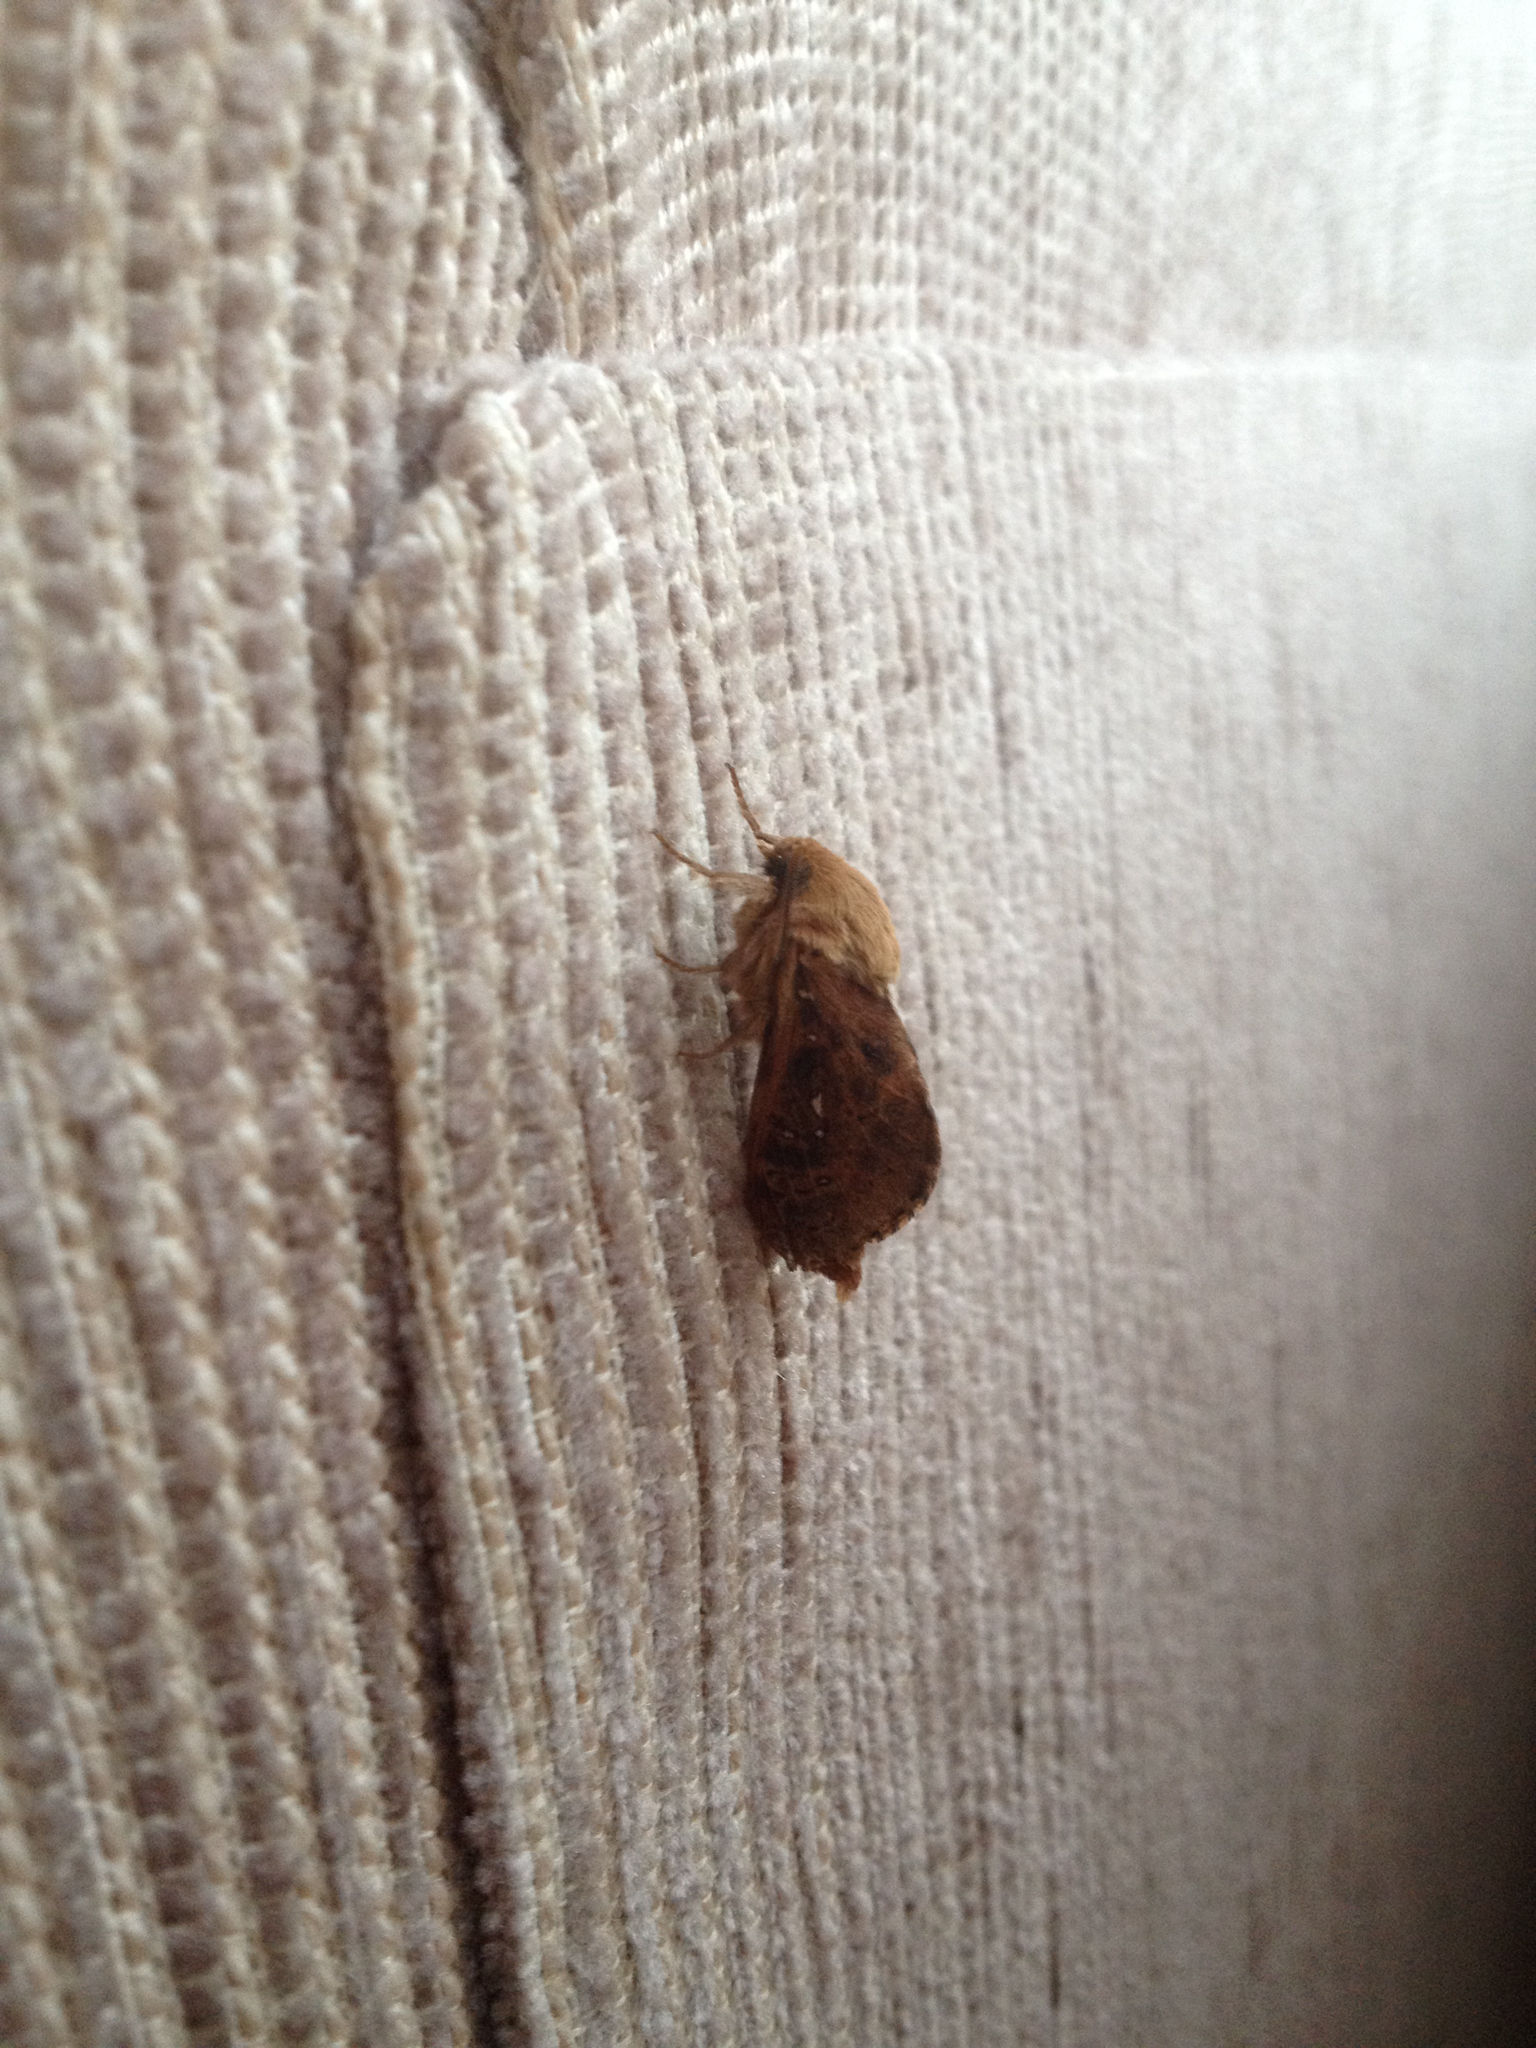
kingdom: Animalia
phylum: Arthropoda
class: Insecta
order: Lepidoptera
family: Hepialidae
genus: Wiseana
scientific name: Wiseana cervinata
